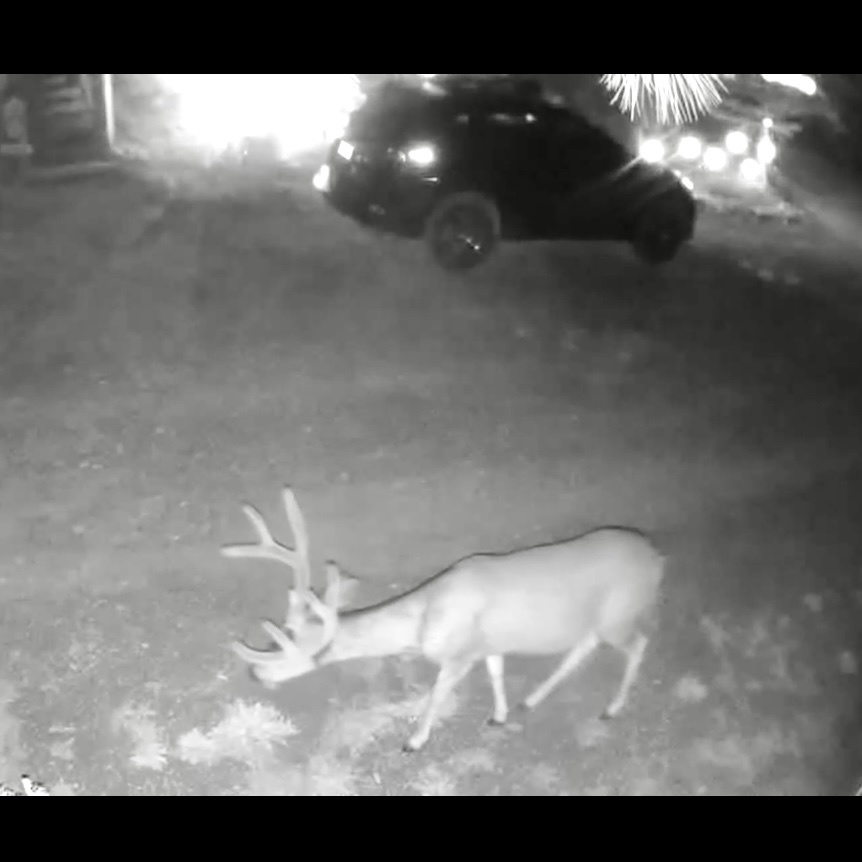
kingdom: Animalia
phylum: Chordata
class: Mammalia
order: Artiodactyla
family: Cervidae
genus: Odocoileus
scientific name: Odocoileus hemionus
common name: Mule deer
